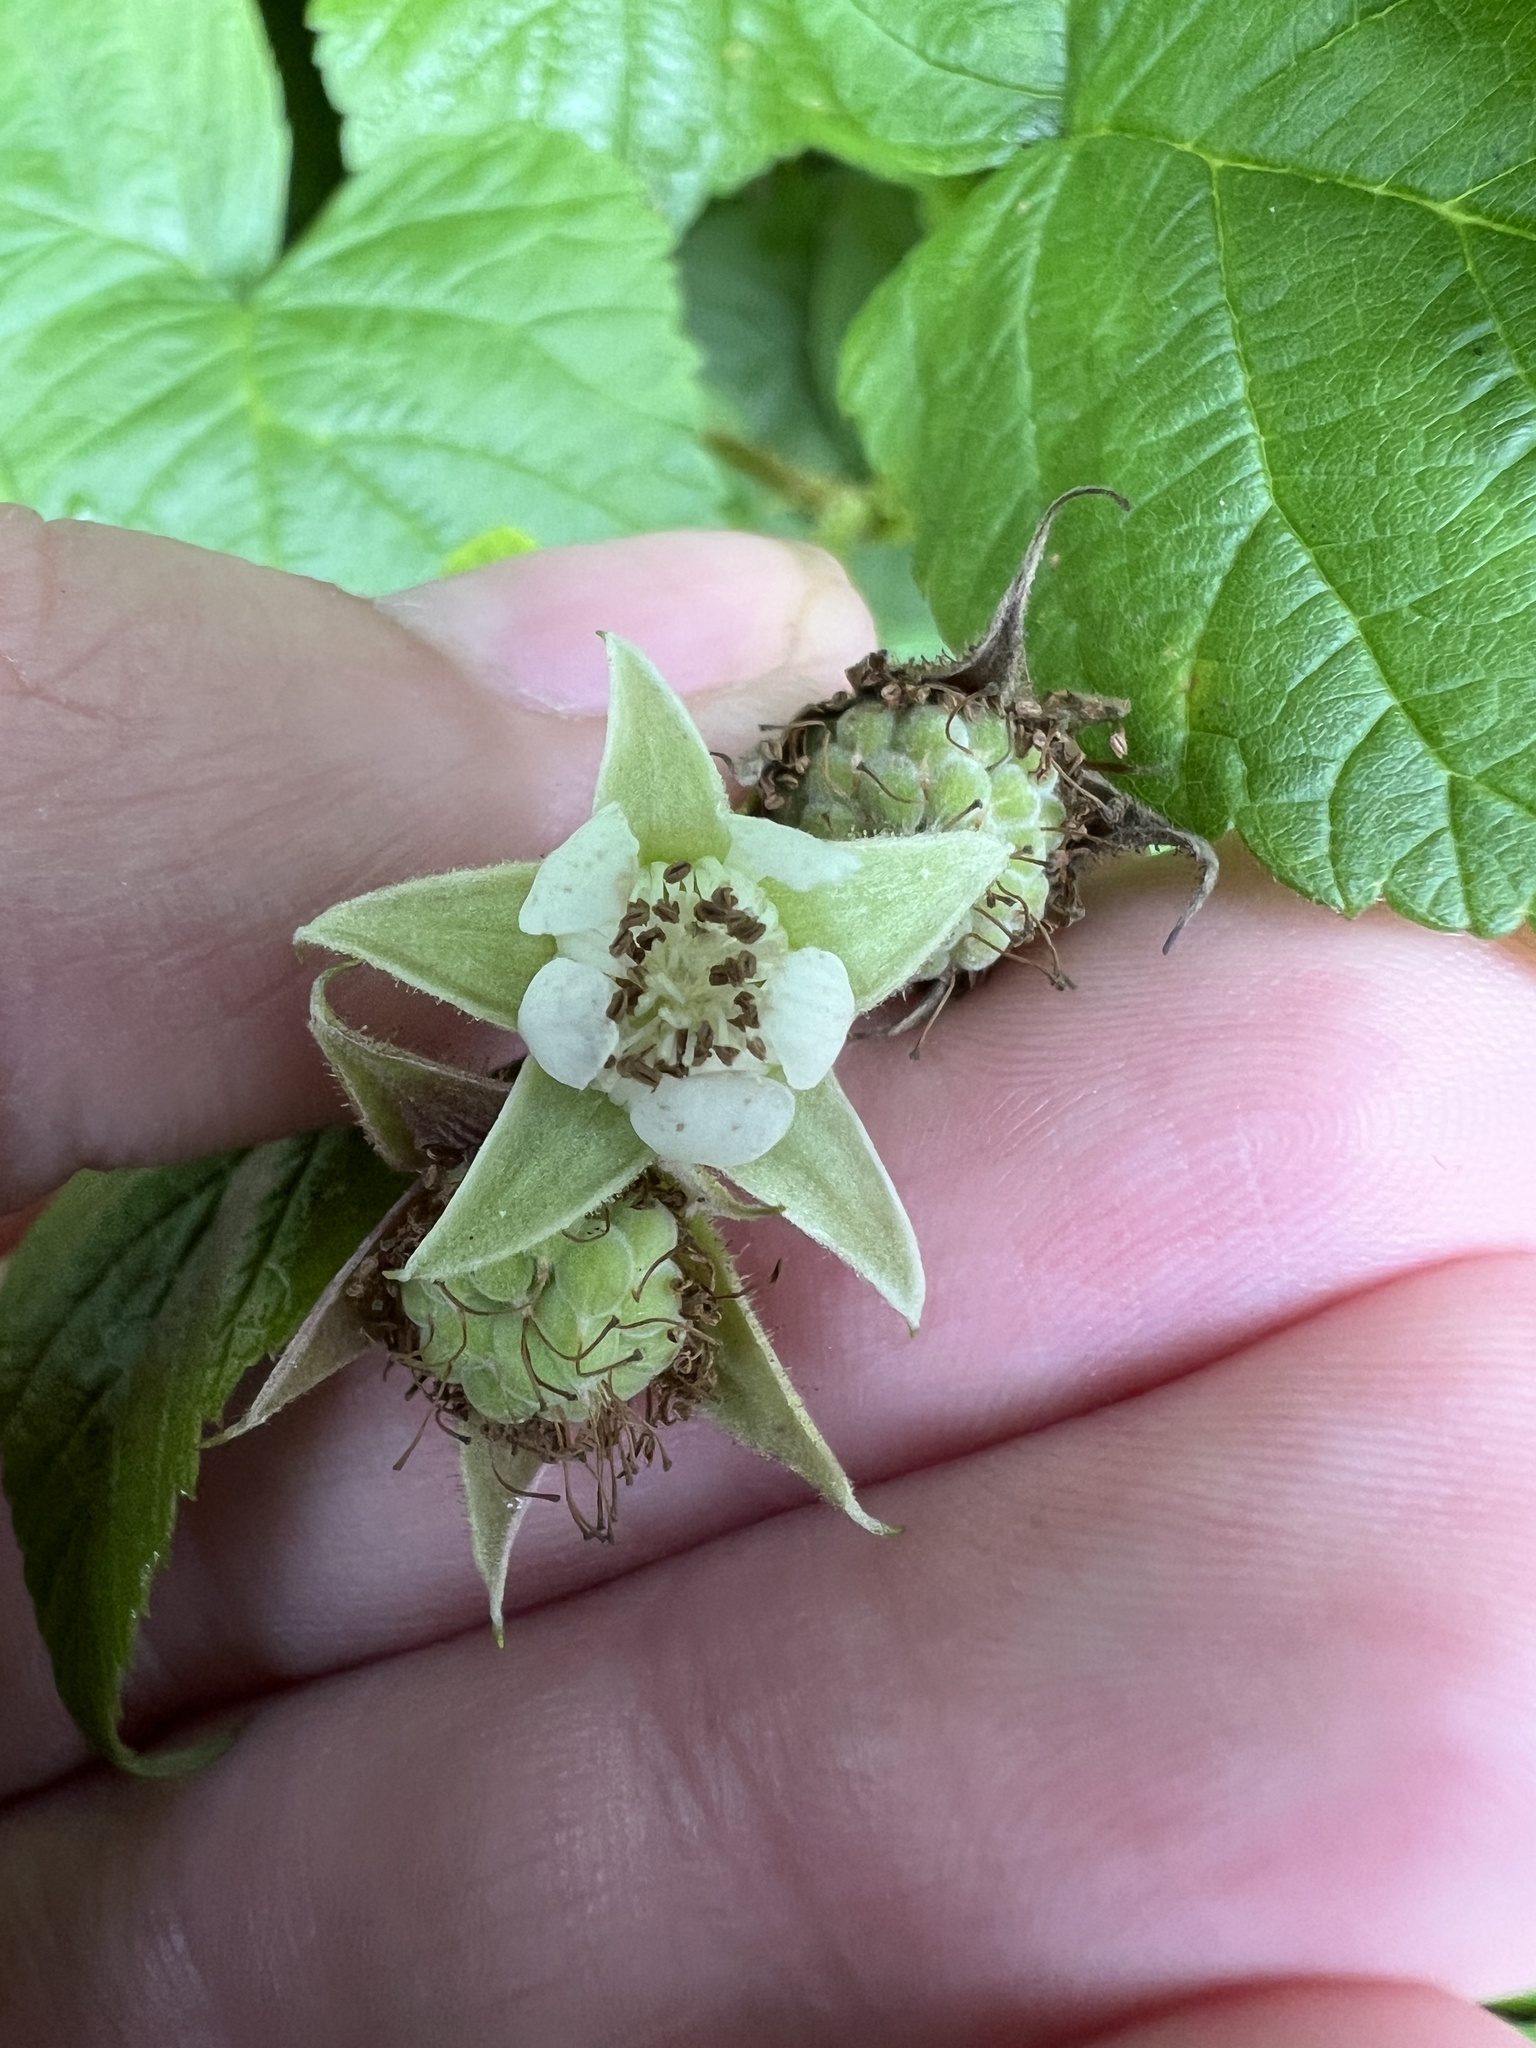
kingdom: Plantae
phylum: Tracheophyta
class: Magnoliopsida
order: Rosales
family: Rosaceae
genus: Rubus
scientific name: Rubus idaeus
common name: Raspberry
